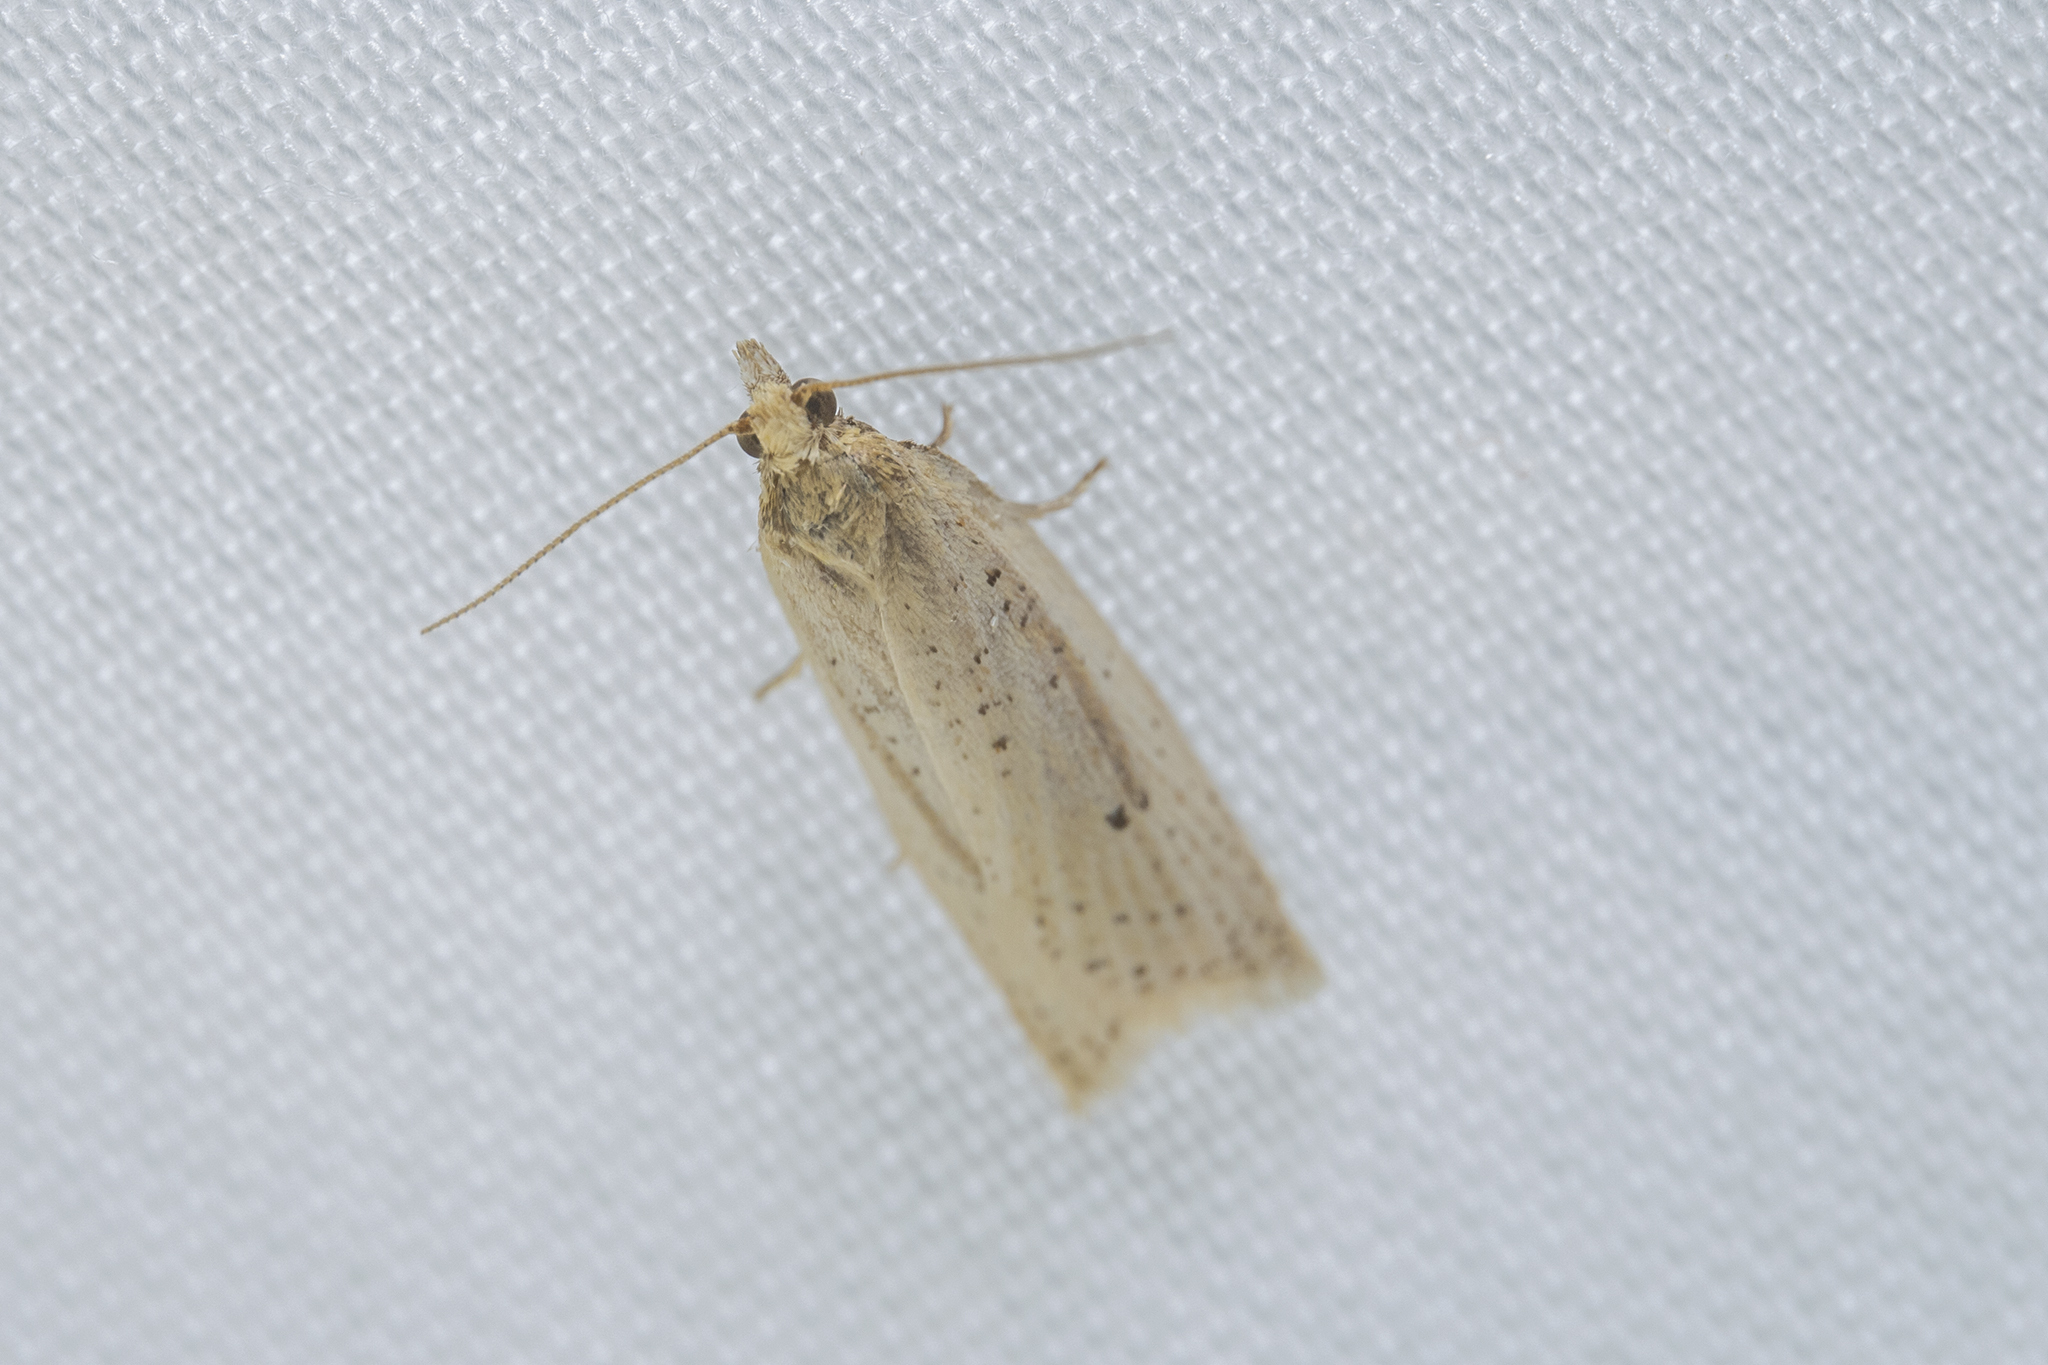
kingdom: Animalia
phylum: Arthropoda
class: Insecta
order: Lepidoptera
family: Tortricidae
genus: Clepsis
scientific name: Clepsis
